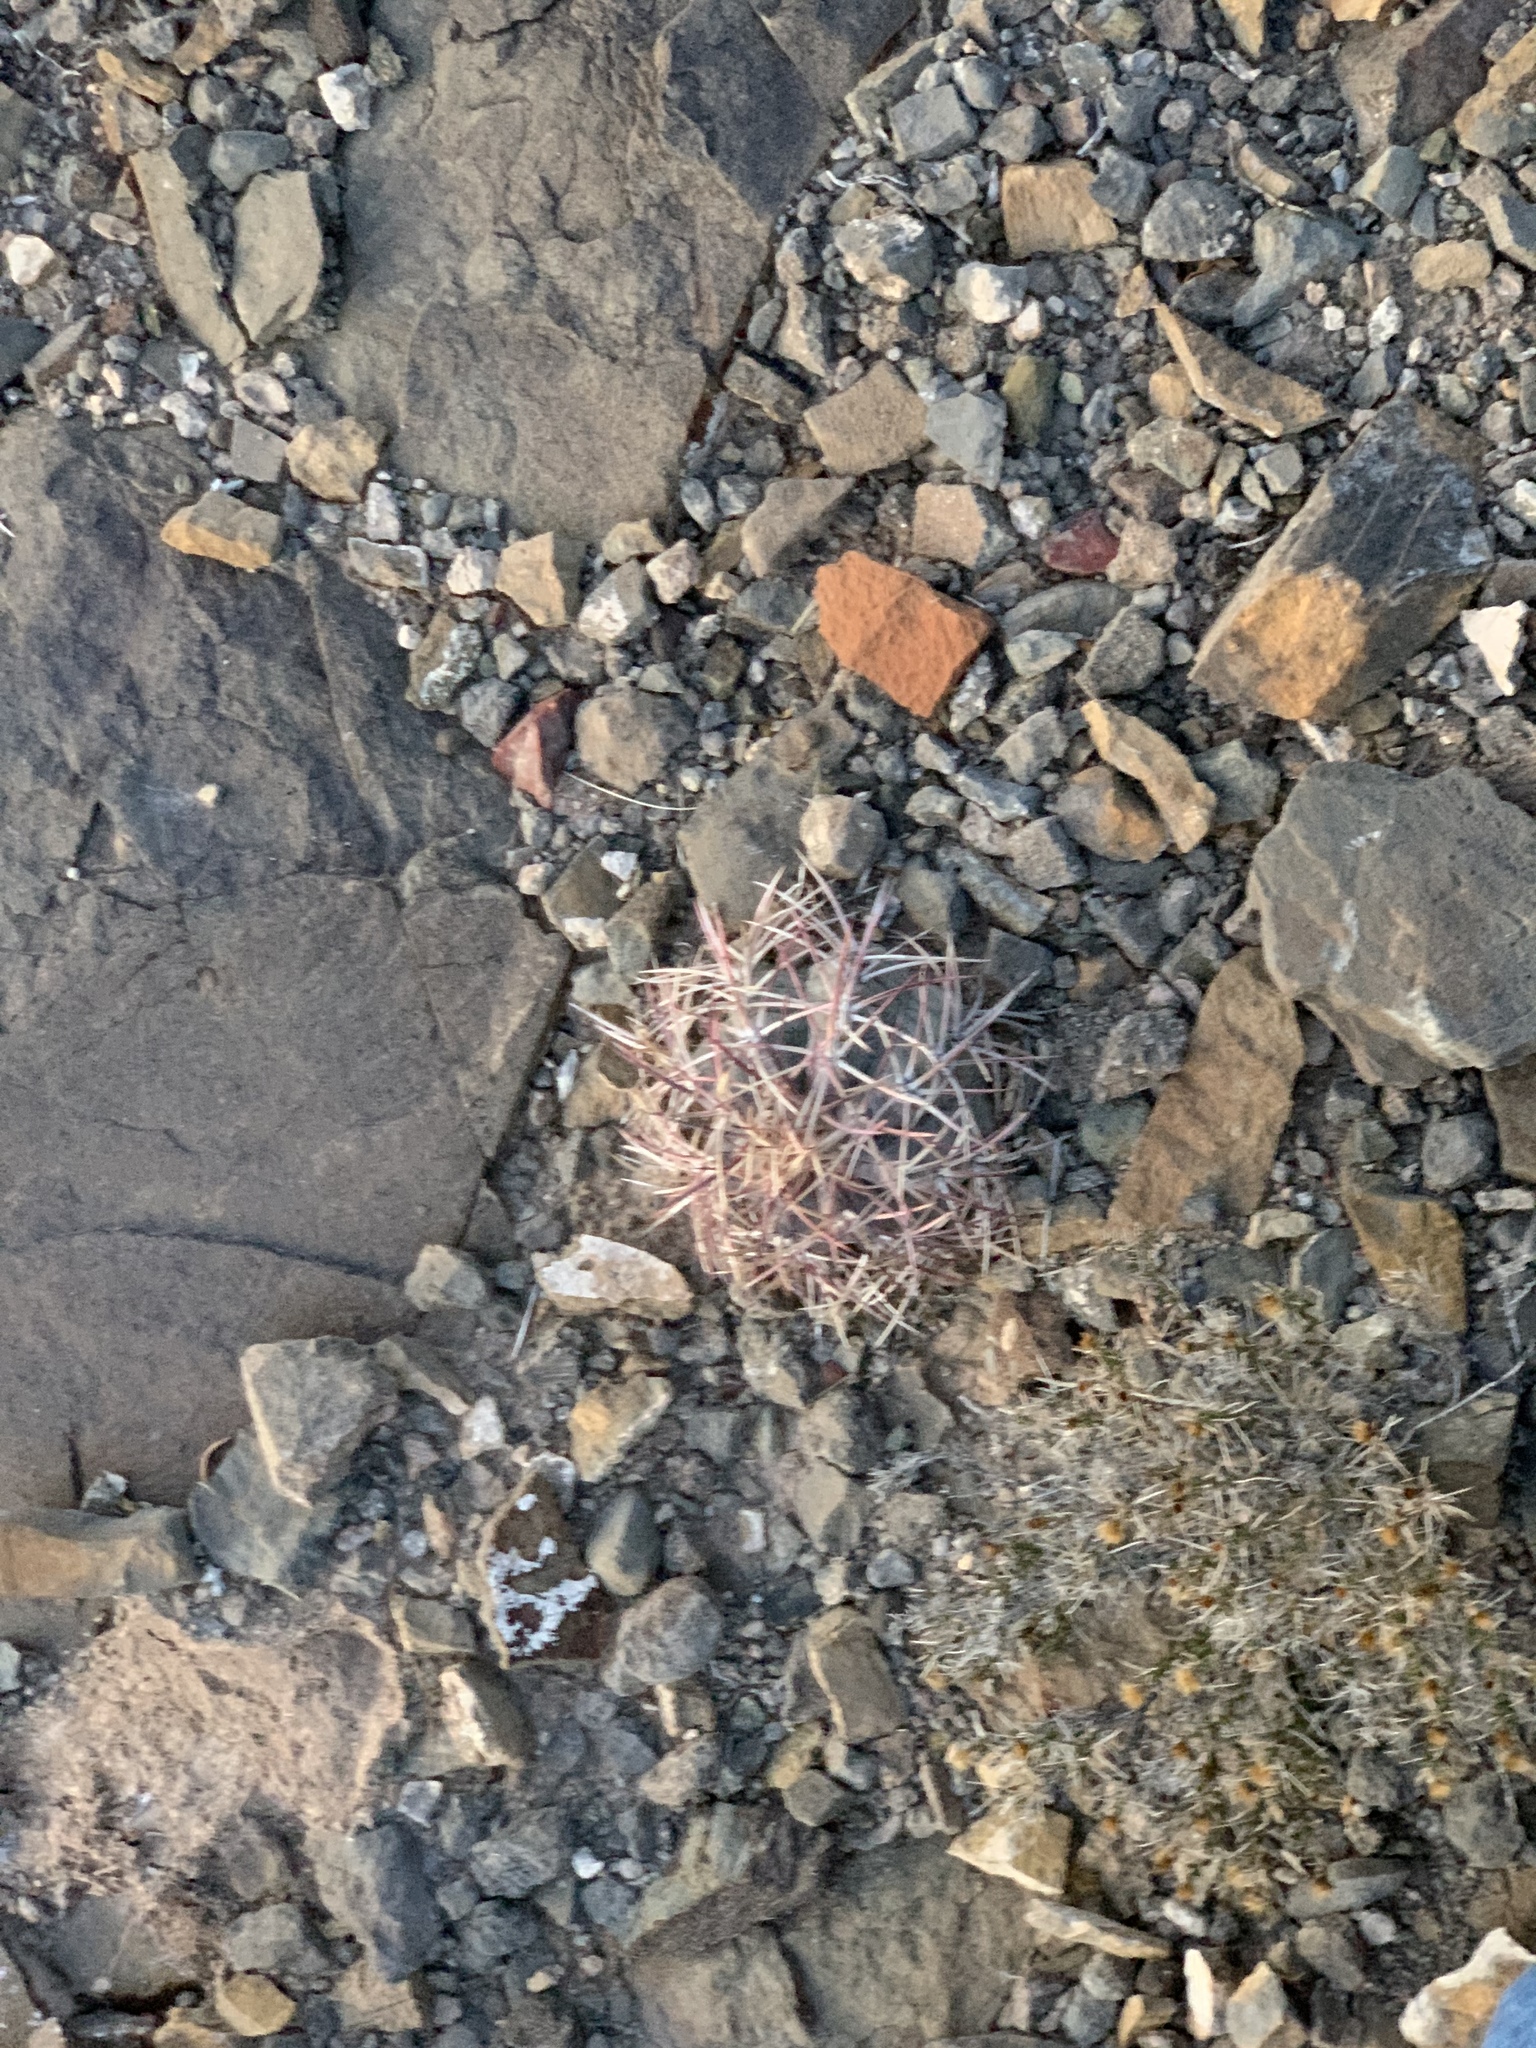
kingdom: Plantae
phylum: Tracheophyta
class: Magnoliopsida
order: Caryophyllales
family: Cactaceae
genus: Echinocactus
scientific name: Echinocactus horizonthalonius
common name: Devilshead
